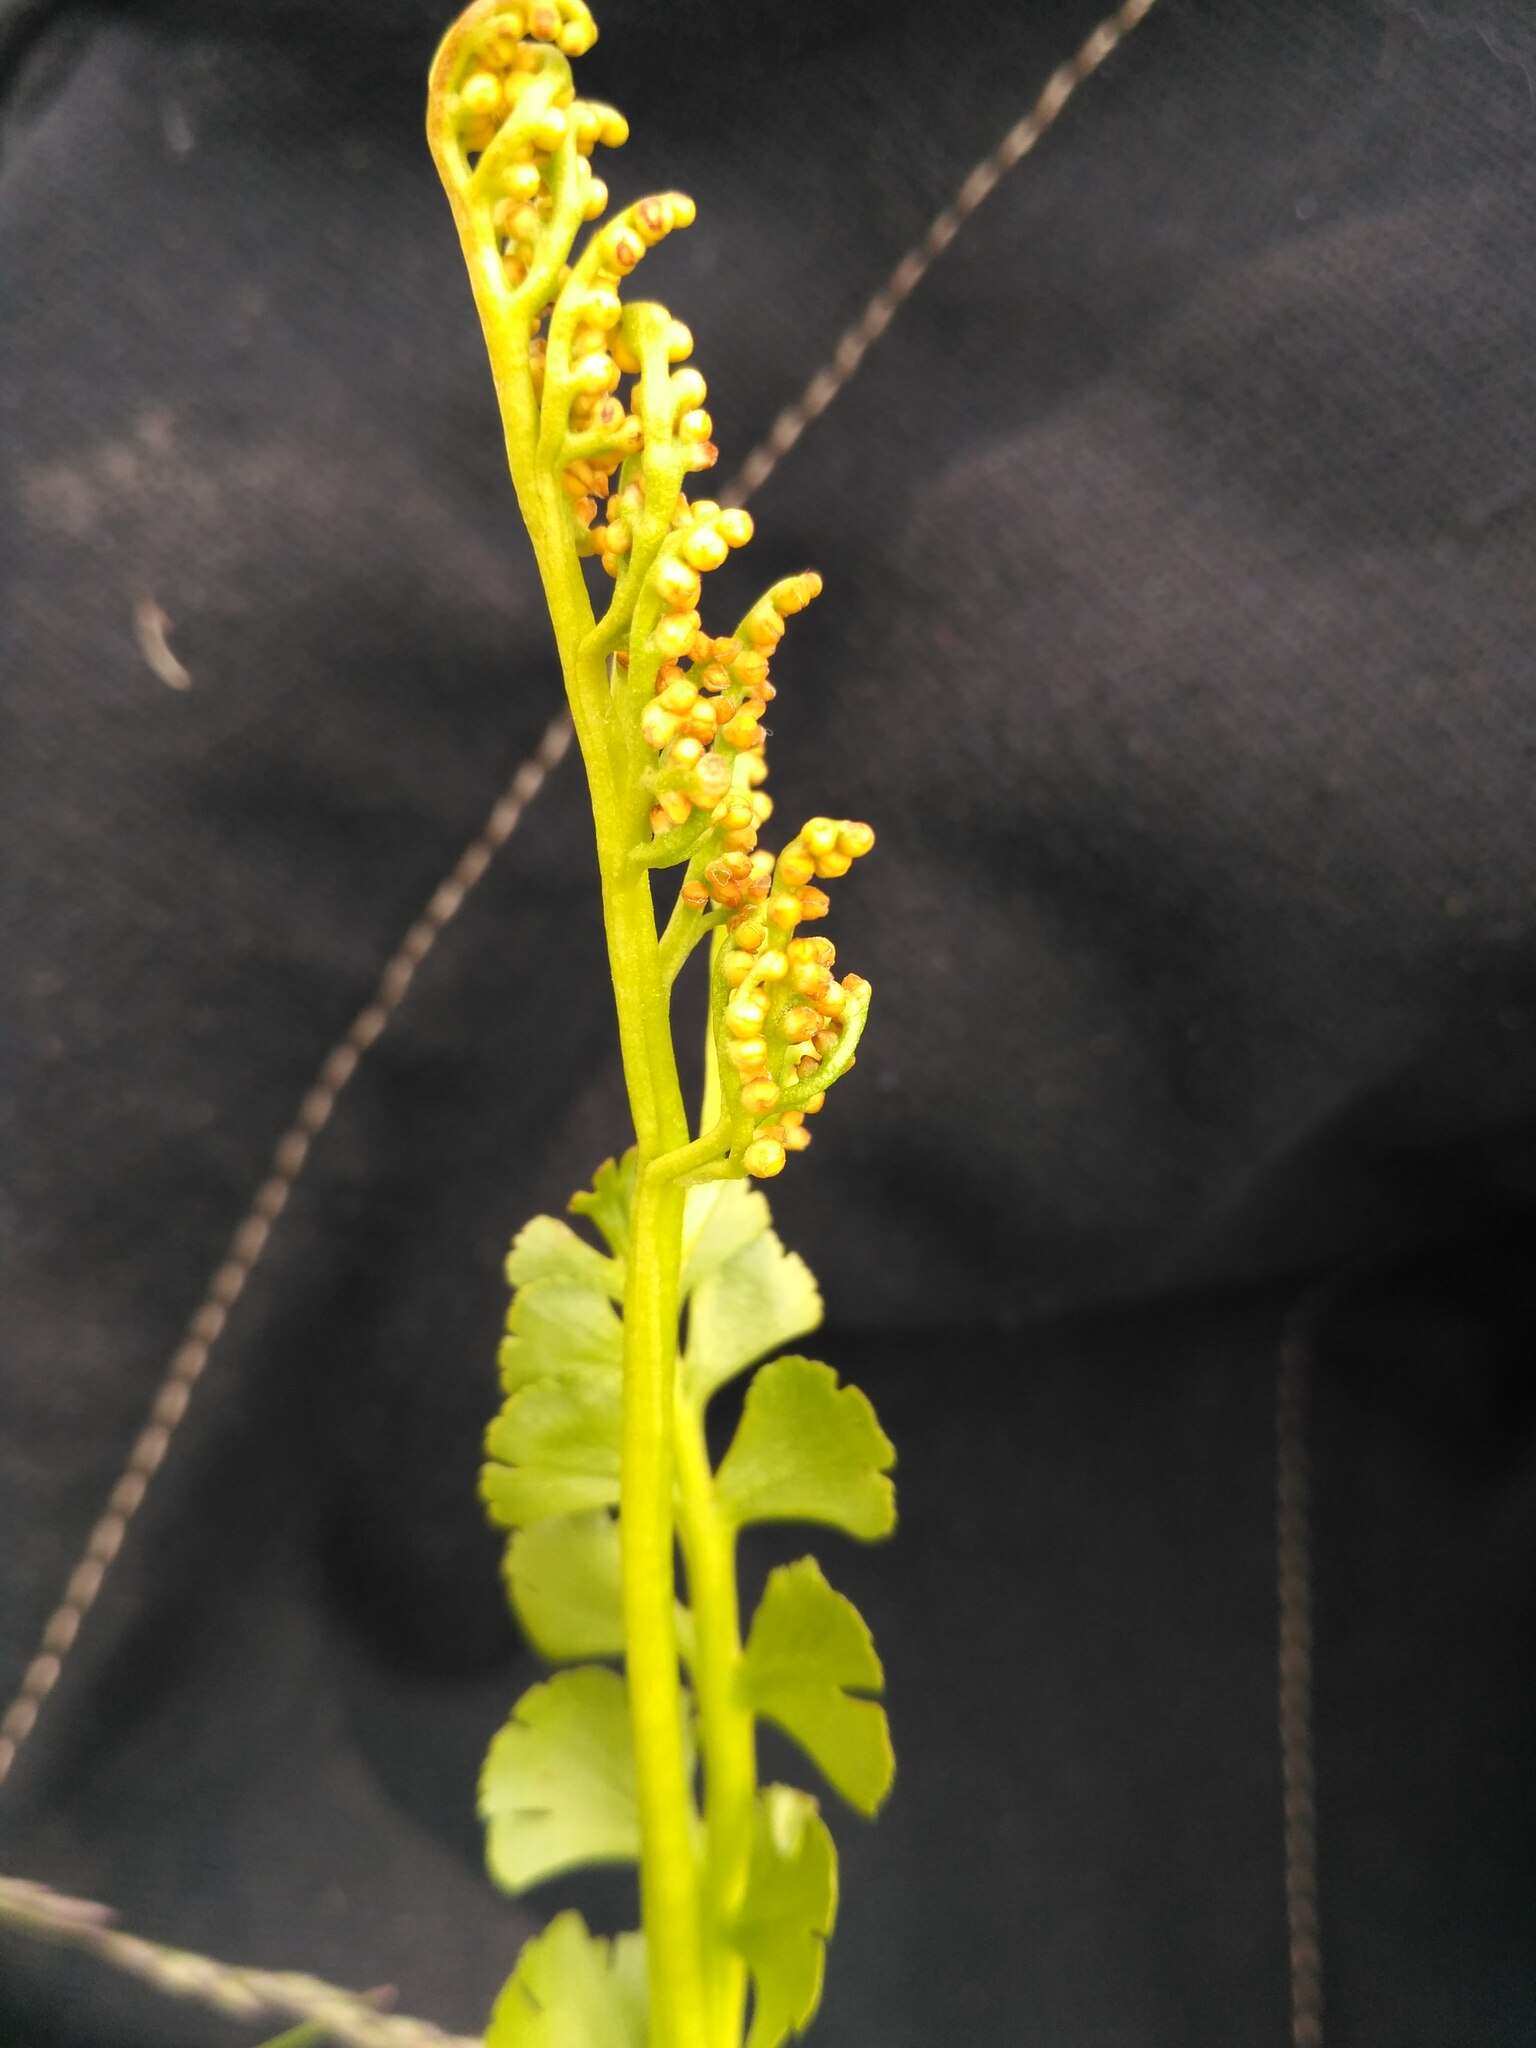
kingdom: Plantae
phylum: Tracheophyta
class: Polypodiopsida
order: Ophioglossales
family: Ophioglossaceae
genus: Botrychium
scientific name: Botrychium lunaria
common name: Moonwort
